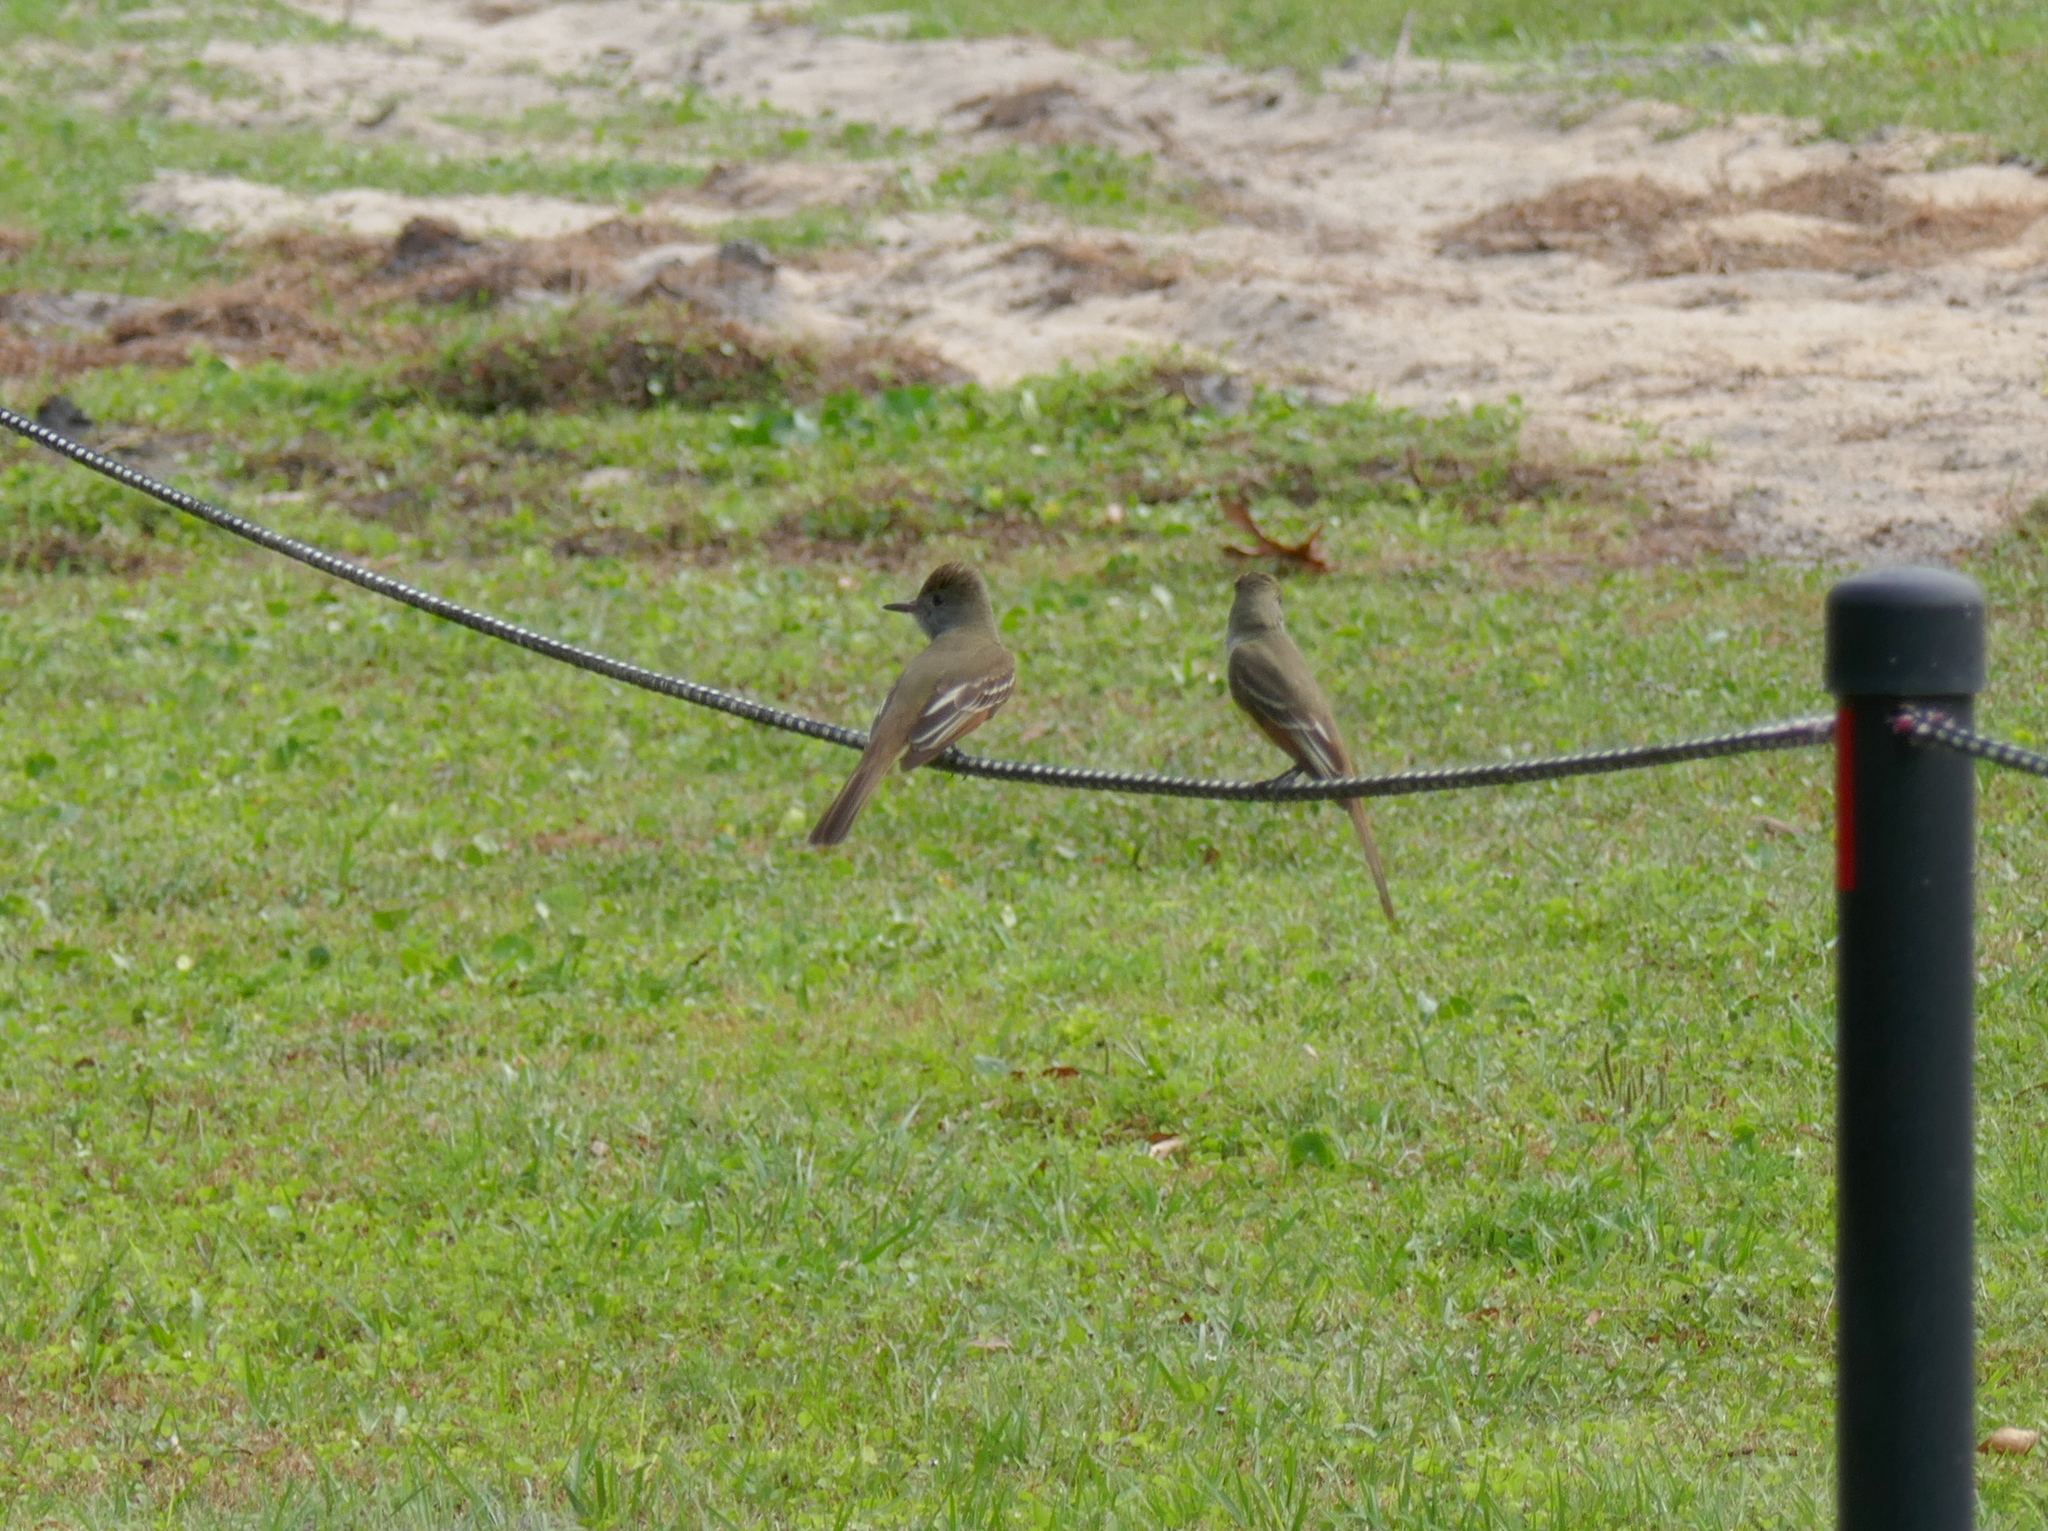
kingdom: Animalia
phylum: Chordata
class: Aves
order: Passeriformes
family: Tyrannidae
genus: Myiarchus
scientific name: Myiarchus crinitus
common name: Great crested flycatcher
